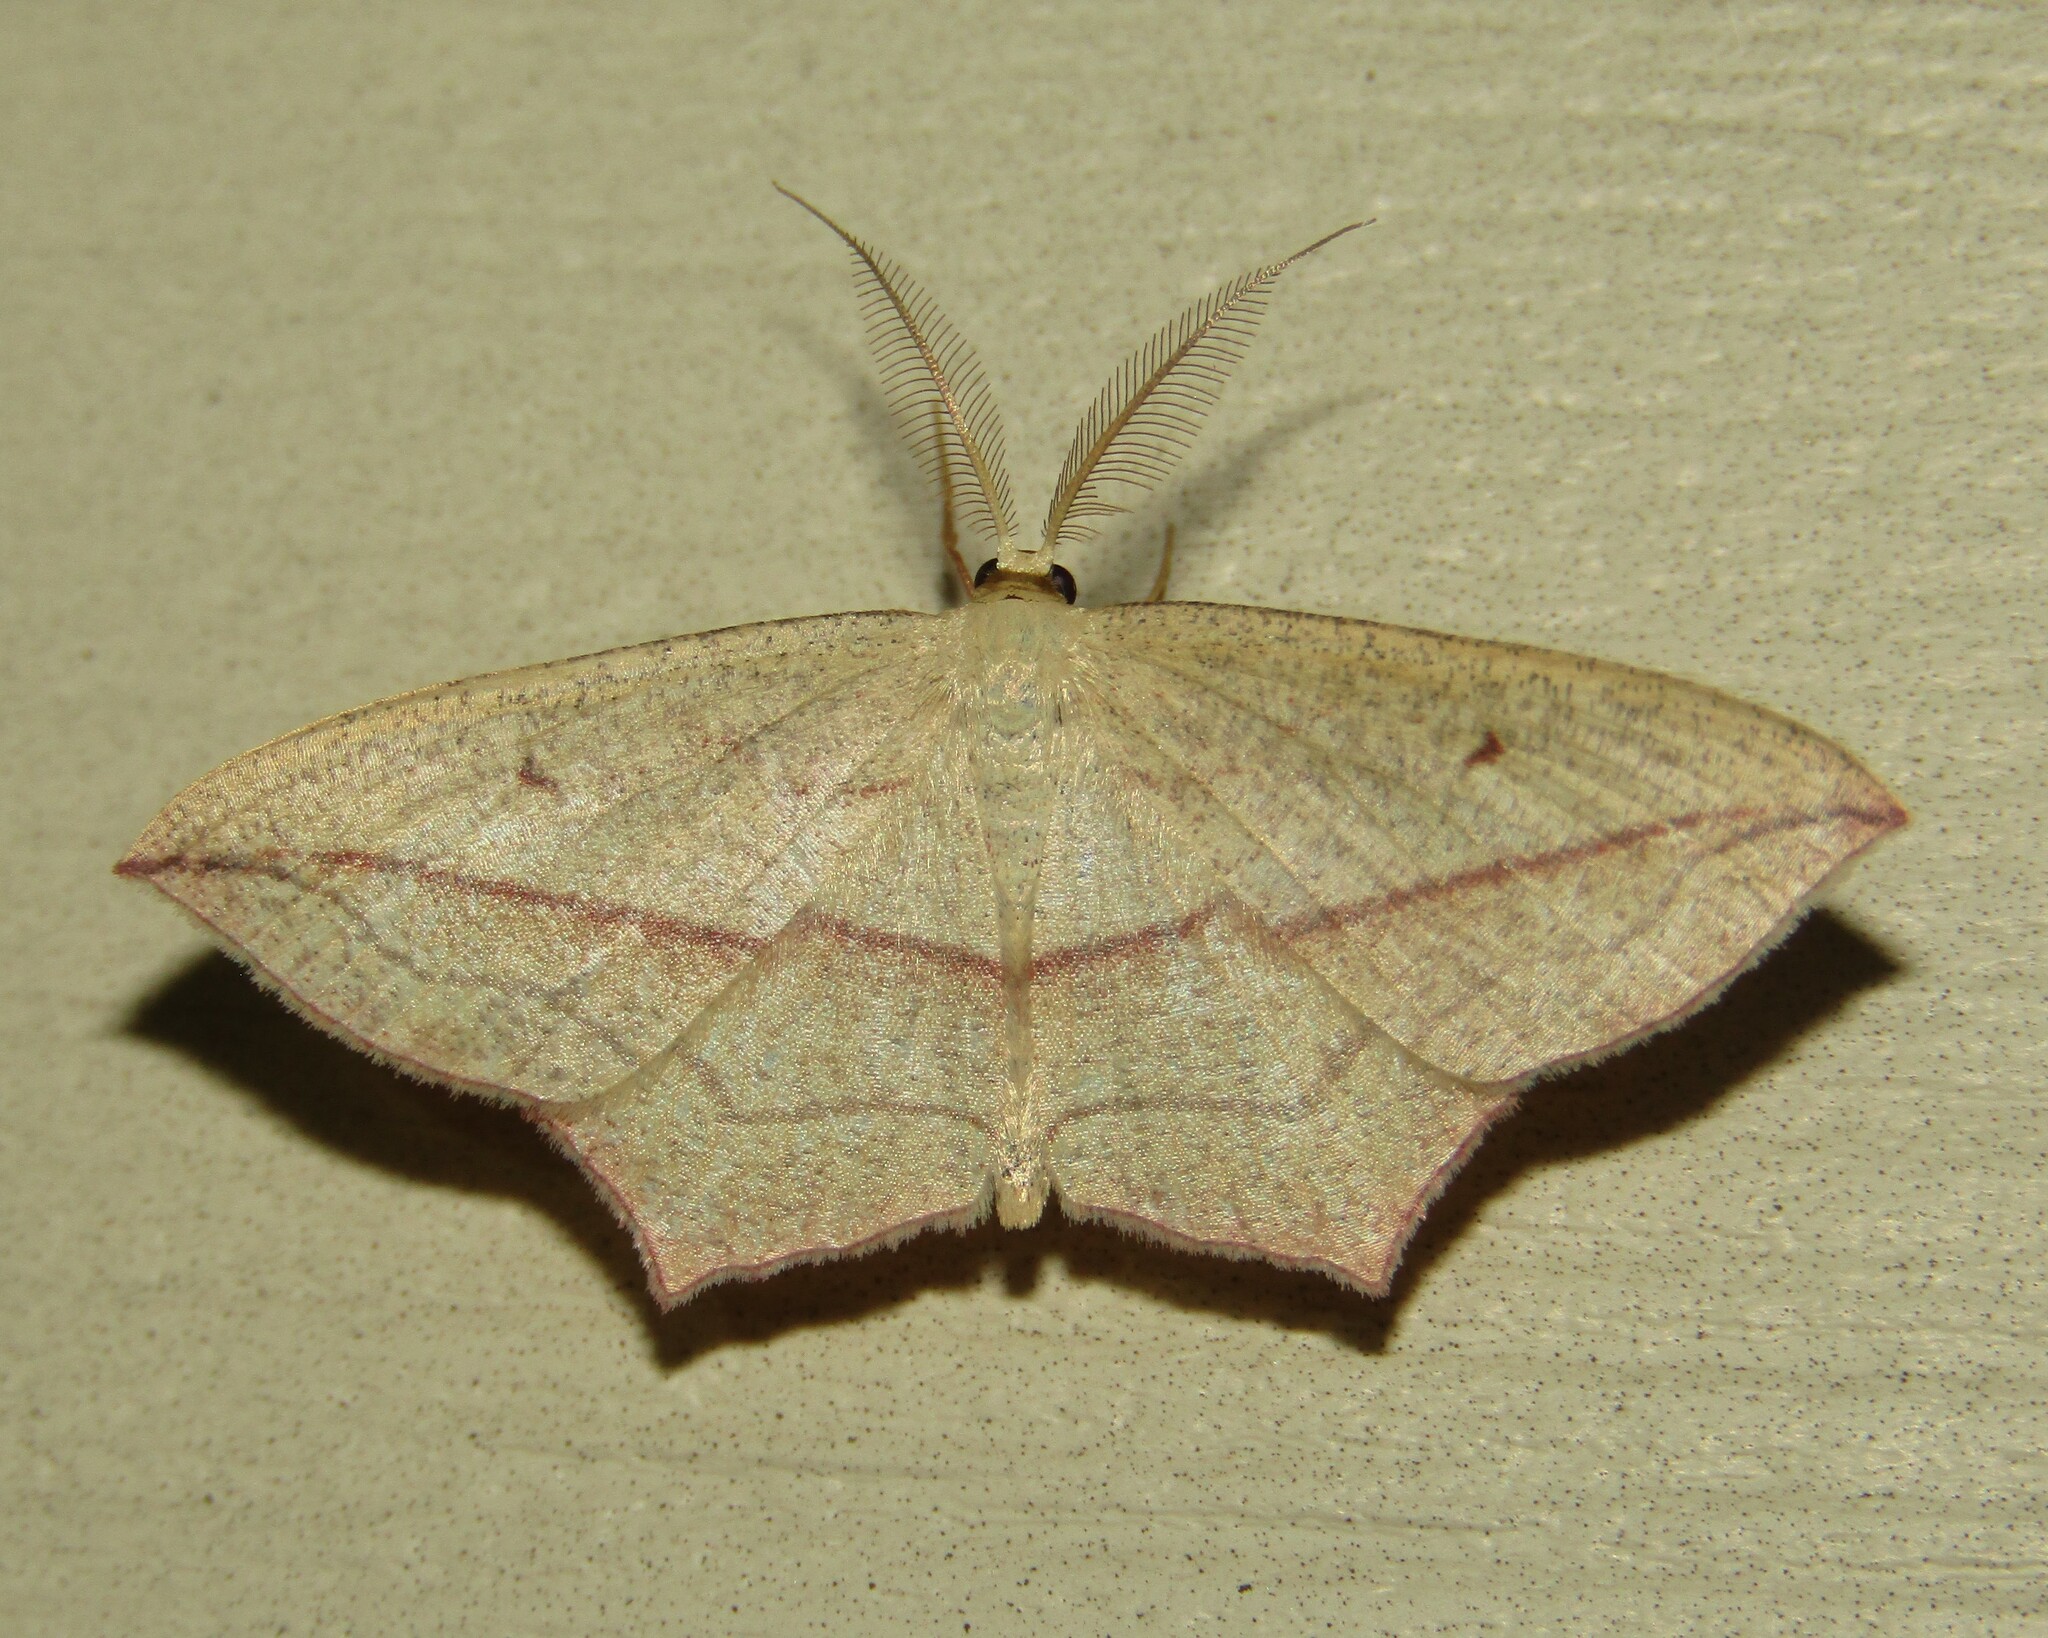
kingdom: Animalia
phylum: Arthropoda
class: Insecta
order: Lepidoptera
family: Geometridae
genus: Timandra
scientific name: Timandra comae
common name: Blood-vein
